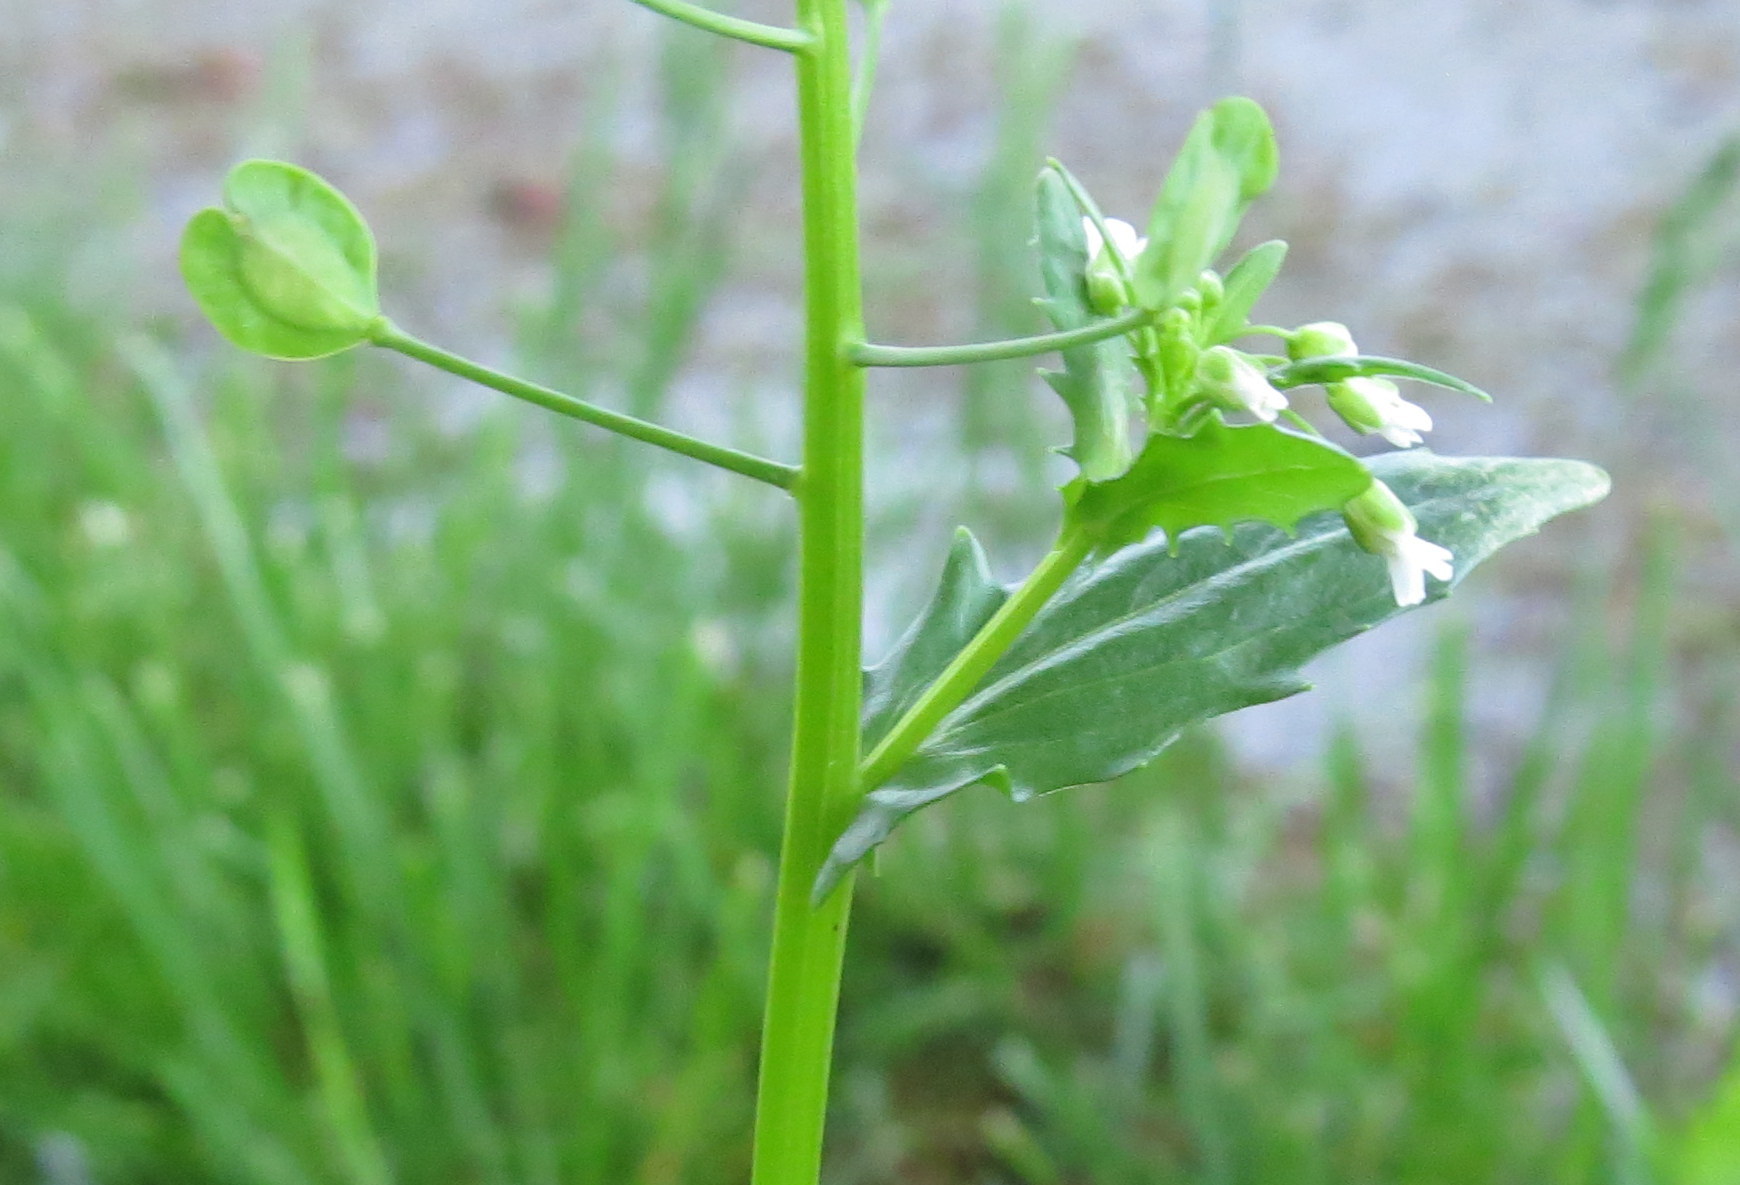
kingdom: Plantae
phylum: Tracheophyta
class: Magnoliopsida
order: Brassicales
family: Brassicaceae
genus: Thlaspi
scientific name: Thlaspi arvense
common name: Field pennycress
